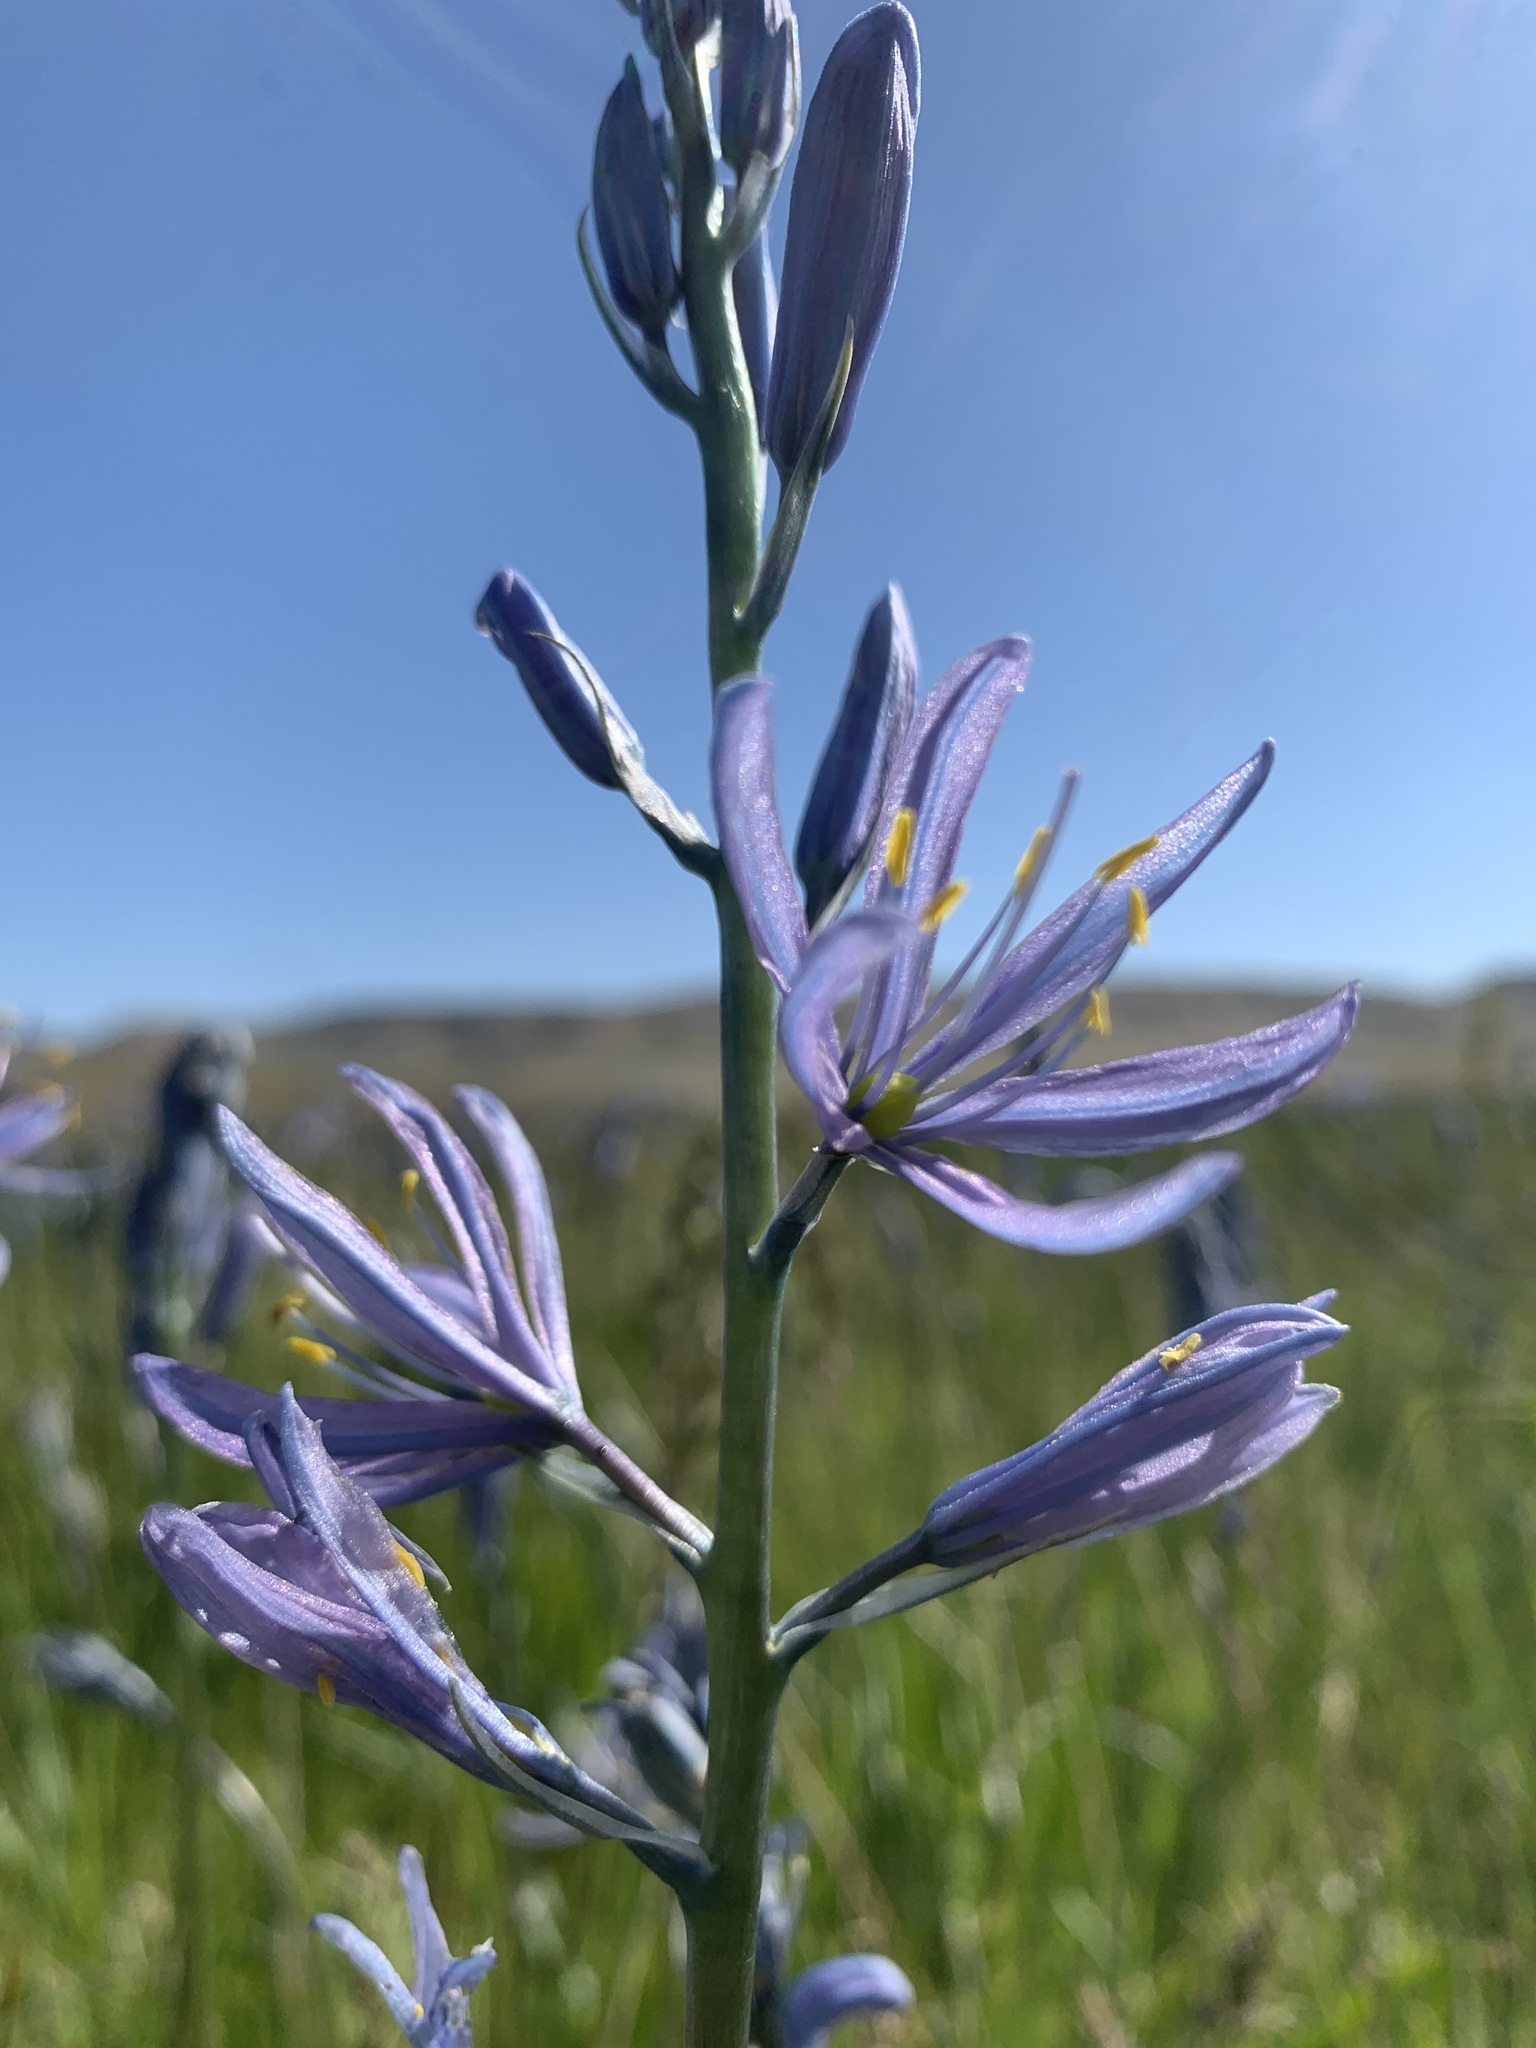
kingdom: Plantae
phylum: Tracheophyta
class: Liliopsida
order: Asparagales
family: Asparagaceae
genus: Camassia
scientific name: Camassia quamash
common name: Common camas
